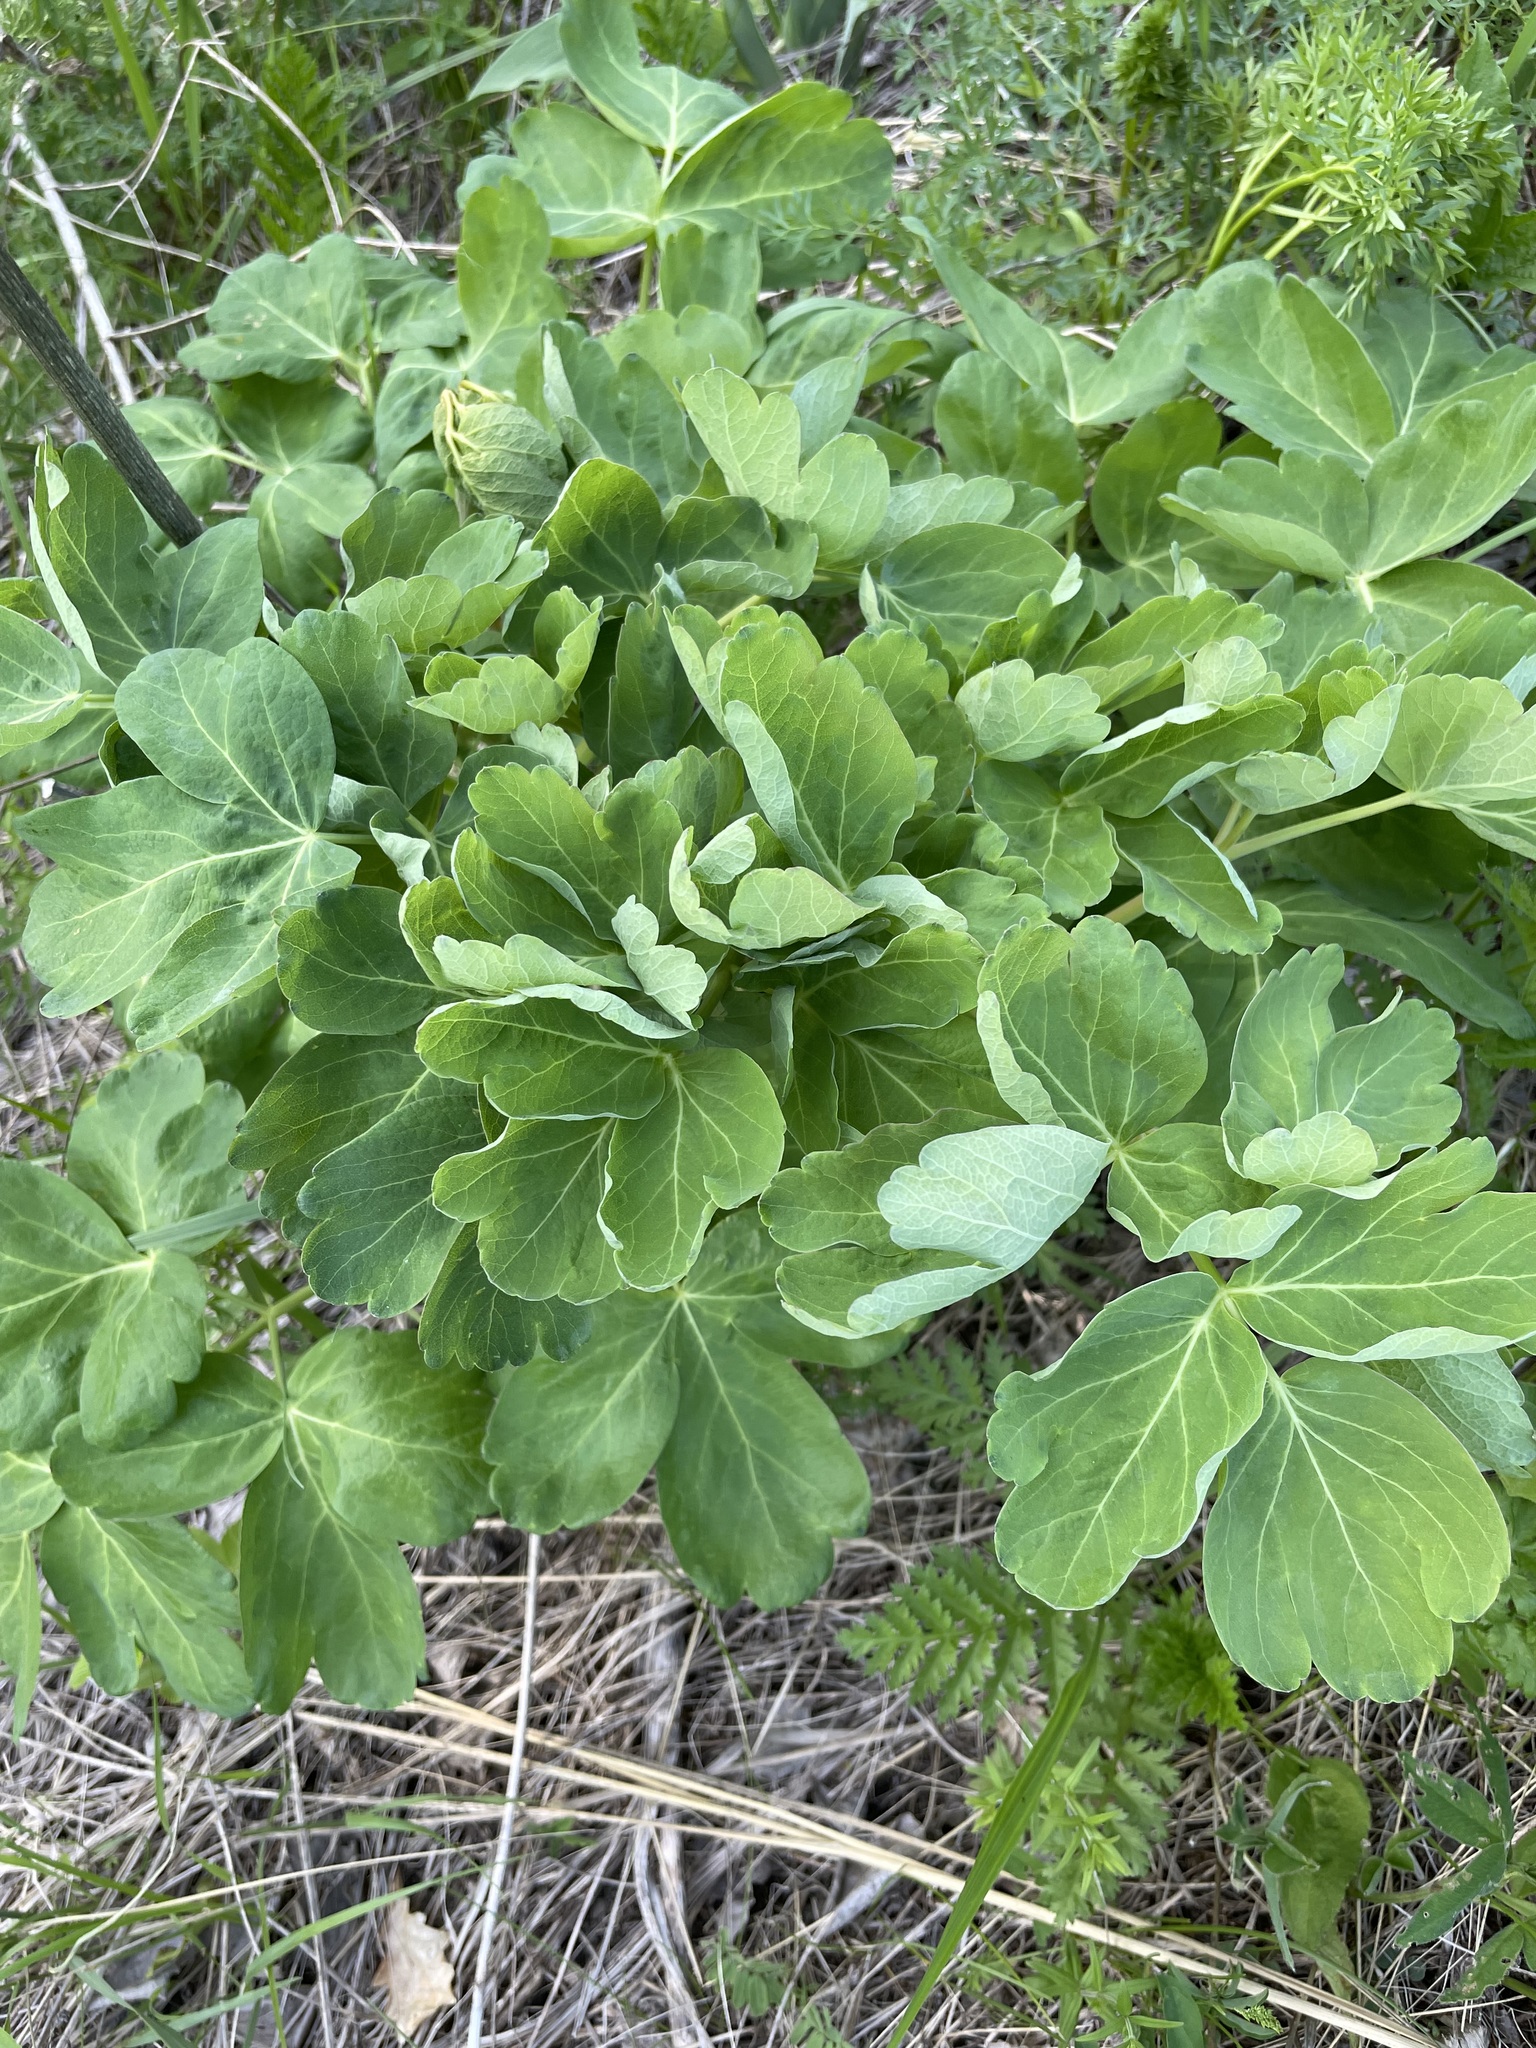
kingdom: Plantae
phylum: Tracheophyta
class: Magnoliopsida
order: Apiales
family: Apiaceae
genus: Laser
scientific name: Laser trilobum
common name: Laser
